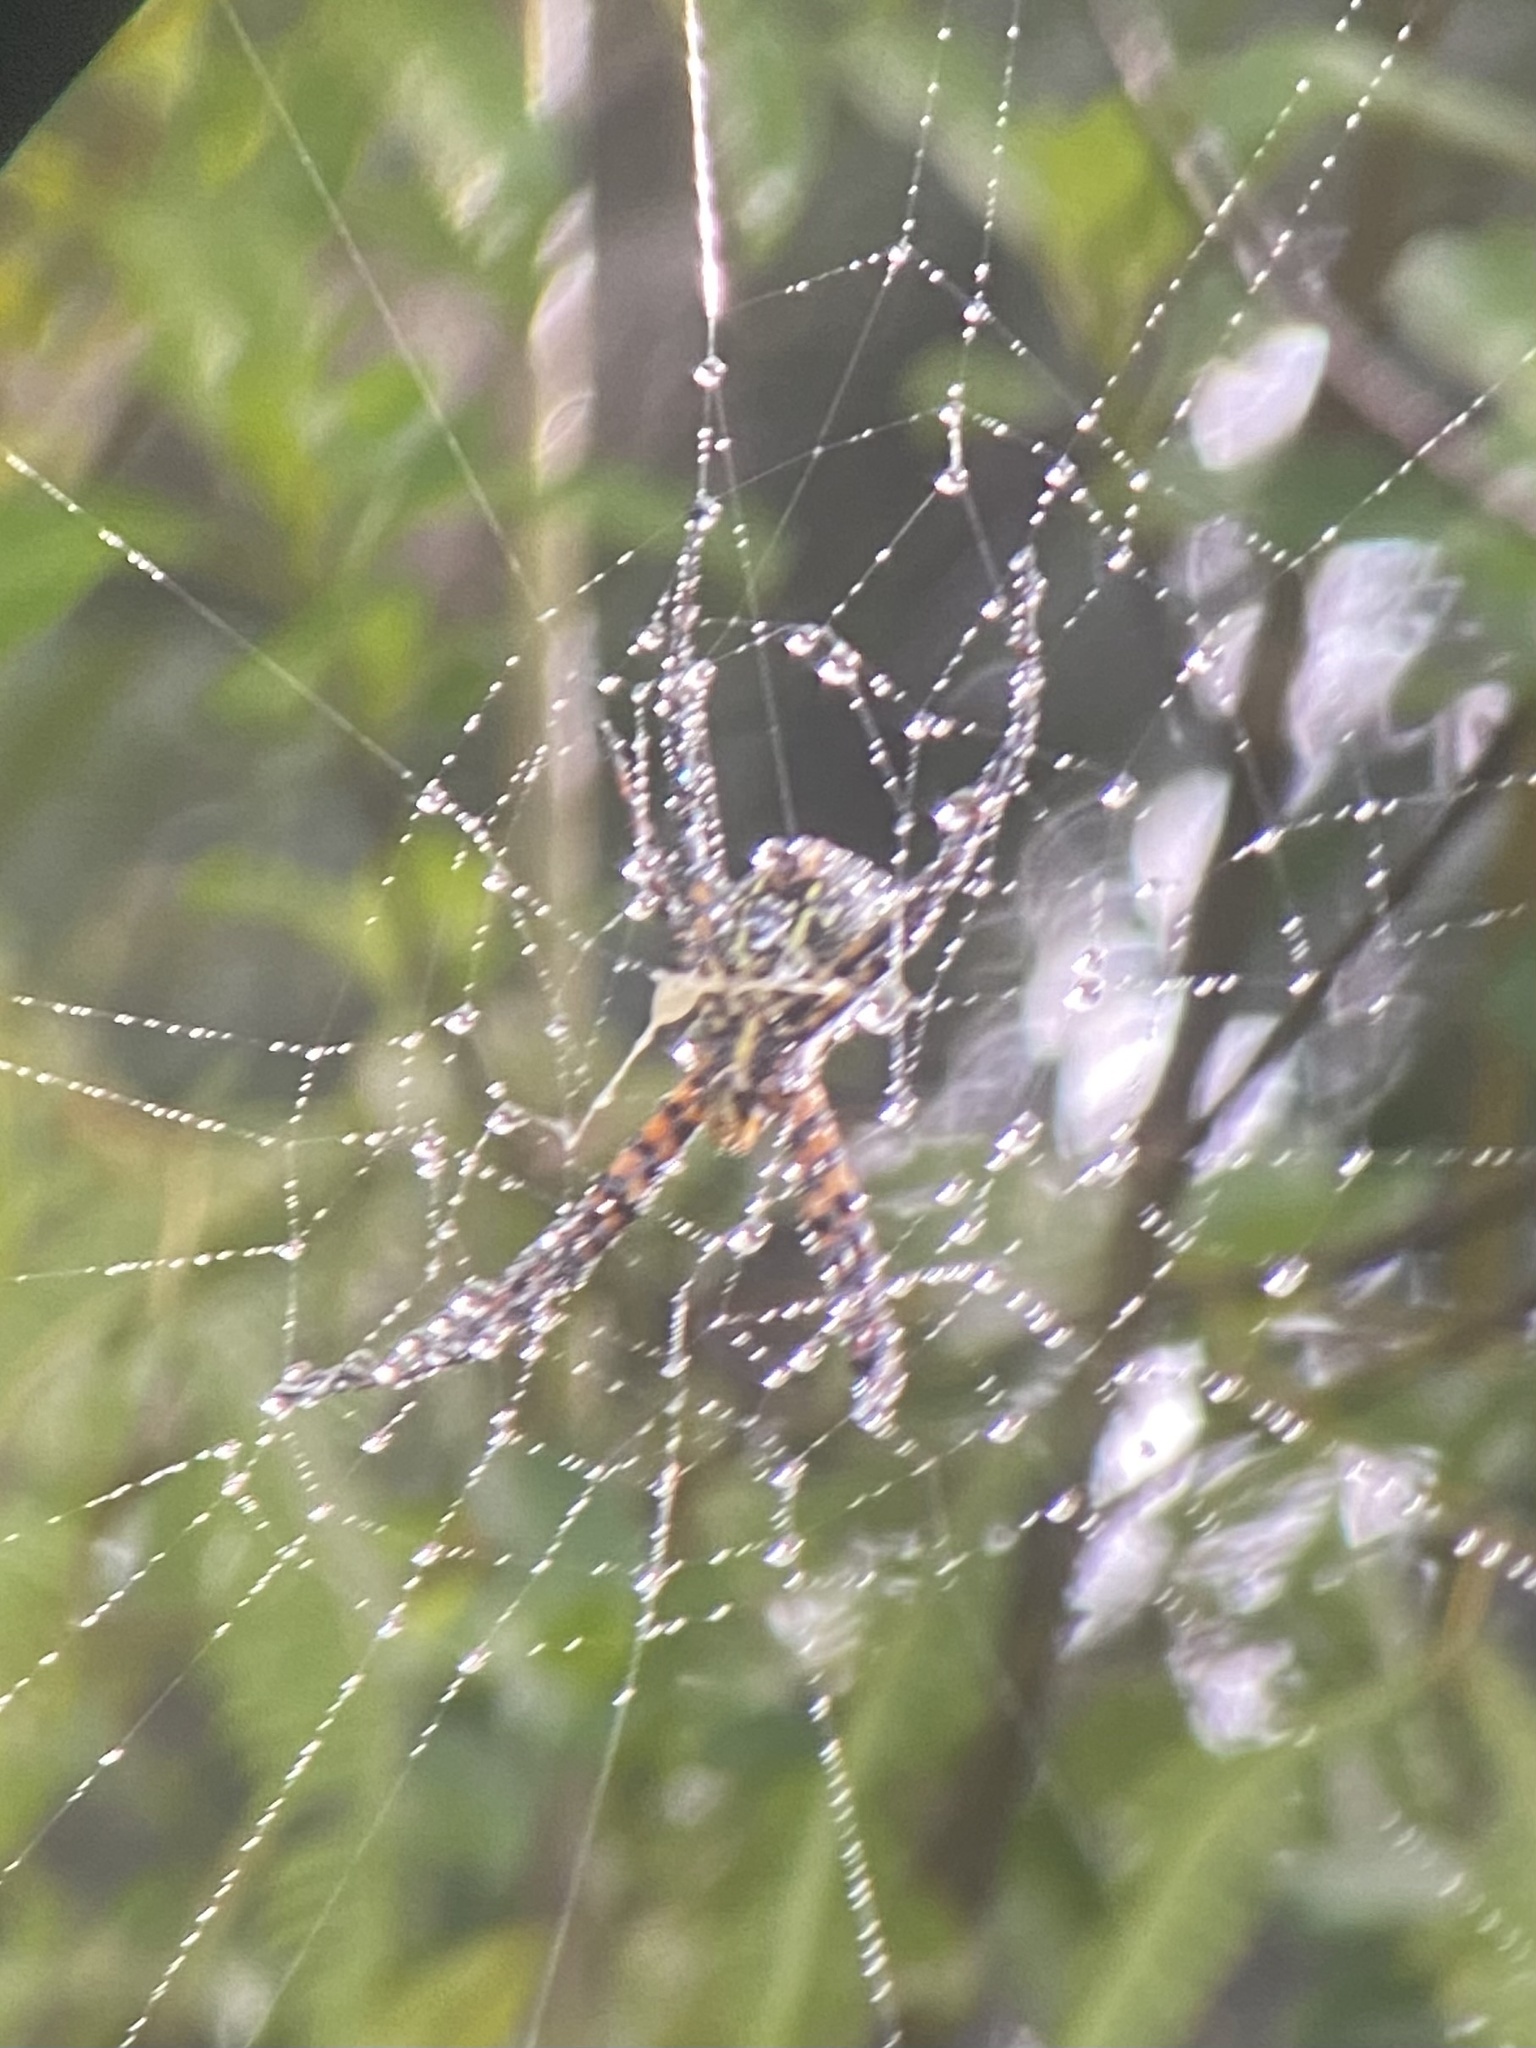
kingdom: Animalia
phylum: Arthropoda
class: Arachnida
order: Araneae
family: Araneidae
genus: Argiope
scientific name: Argiope trifasciata
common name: Banded garden spider
